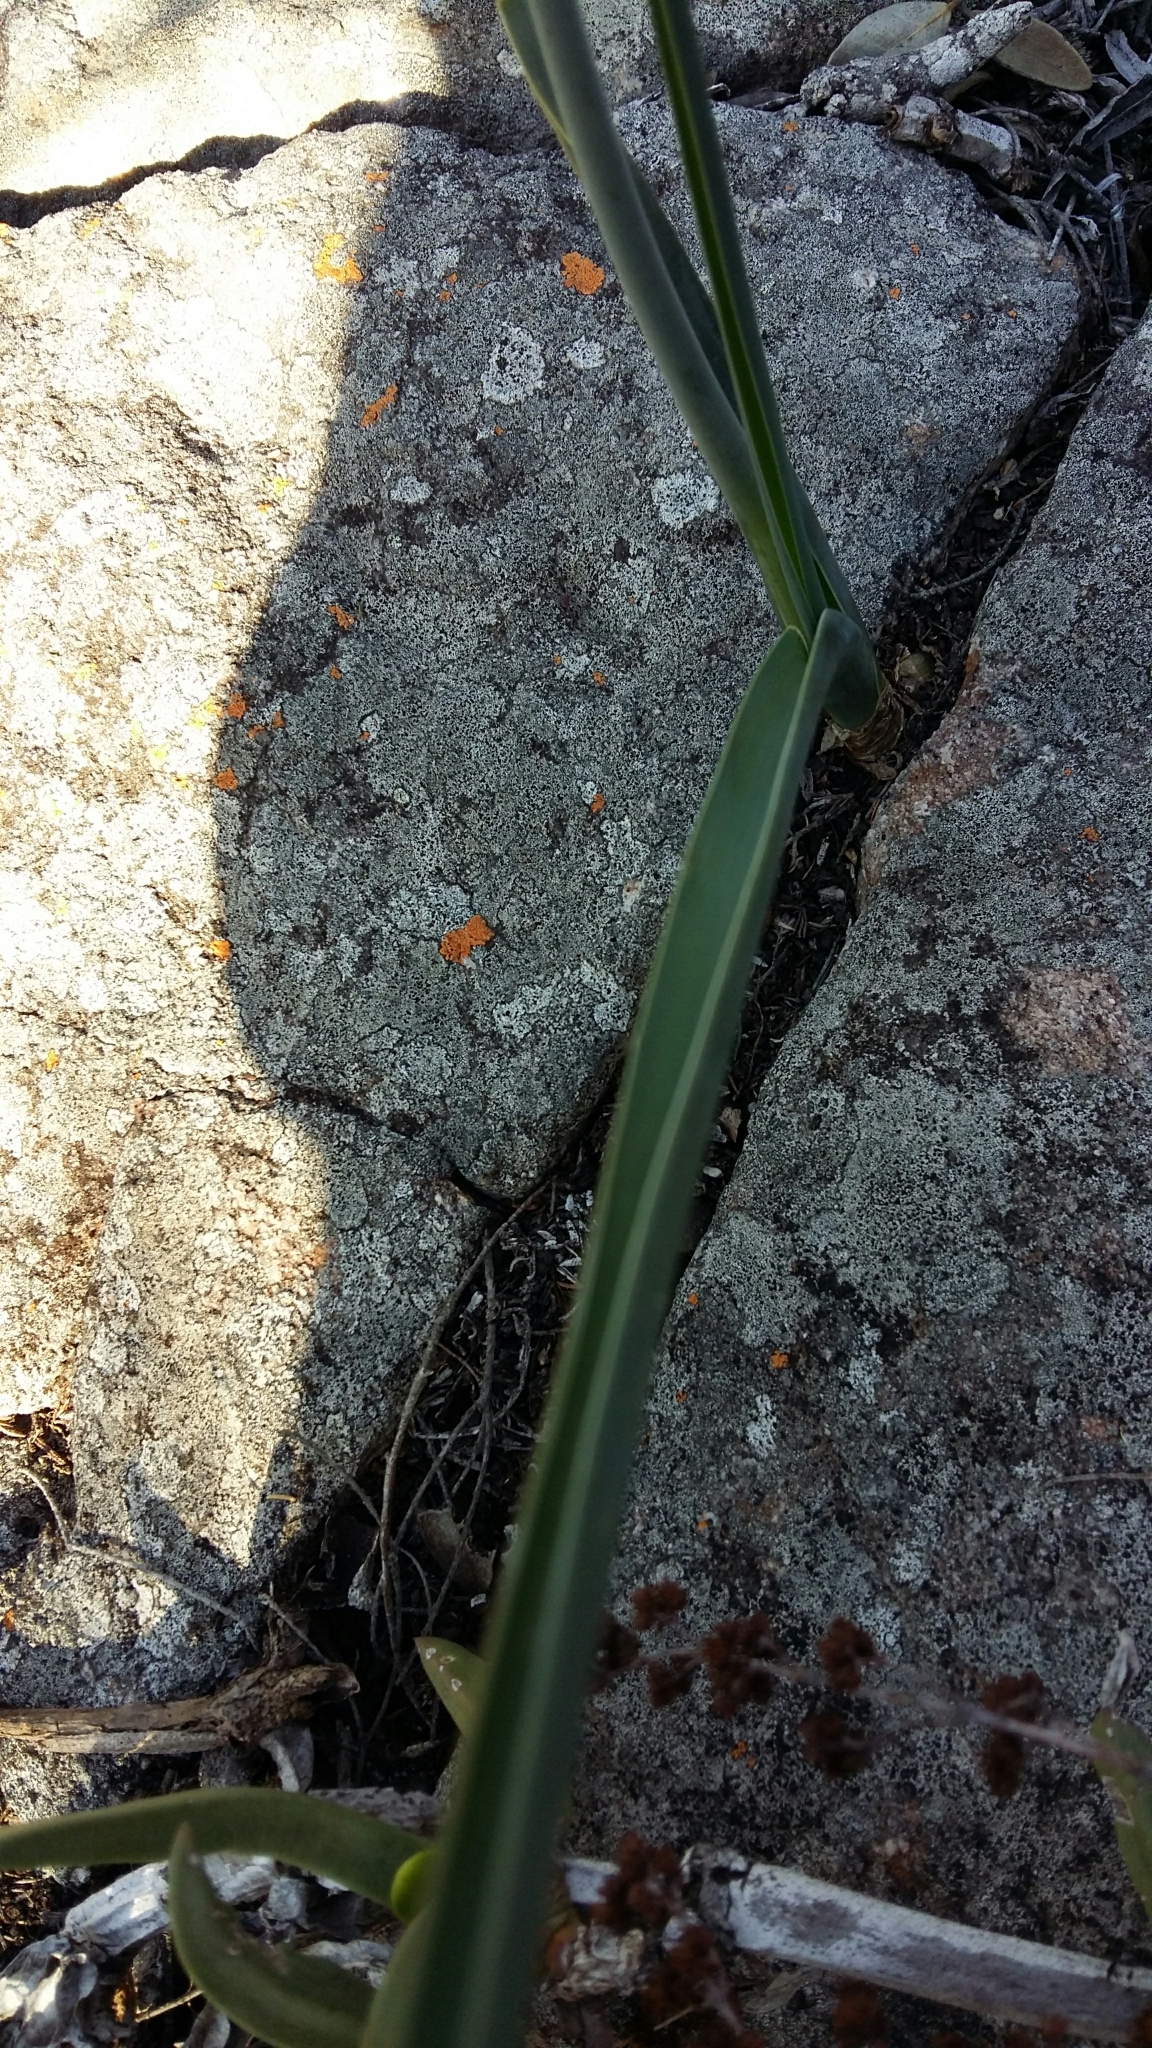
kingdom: Plantae
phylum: Tracheophyta
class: Liliopsida
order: Asparagales
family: Asparagaceae
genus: Albuca
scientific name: Albuca virens
